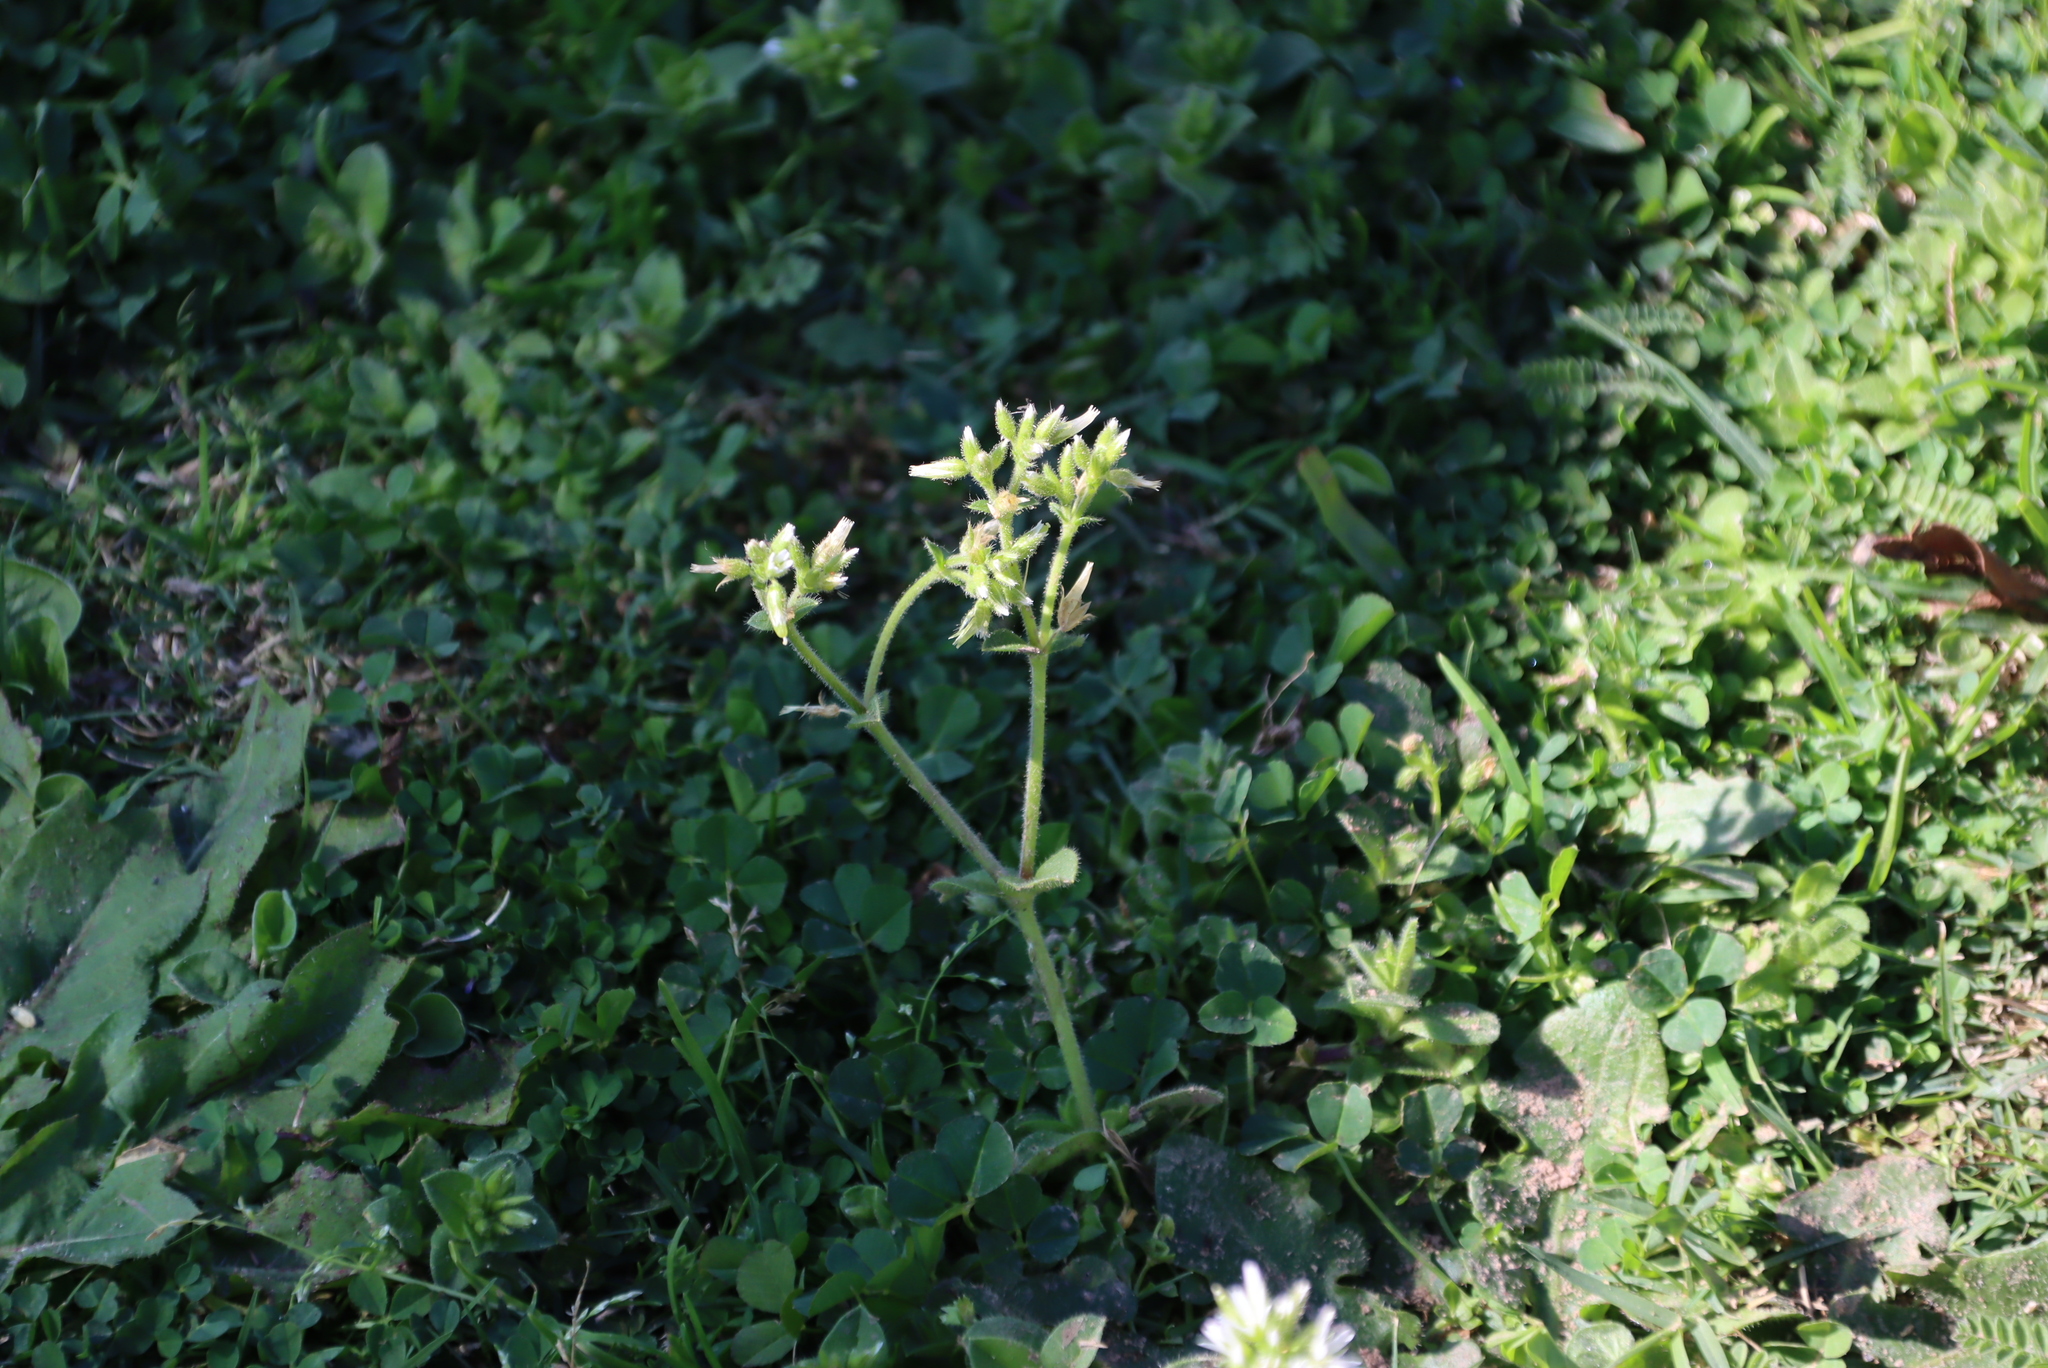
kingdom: Plantae
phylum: Tracheophyta
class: Magnoliopsida
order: Caryophyllales
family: Caryophyllaceae
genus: Cerastium
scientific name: Cerastium glomeratum
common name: Sticky chickweed
